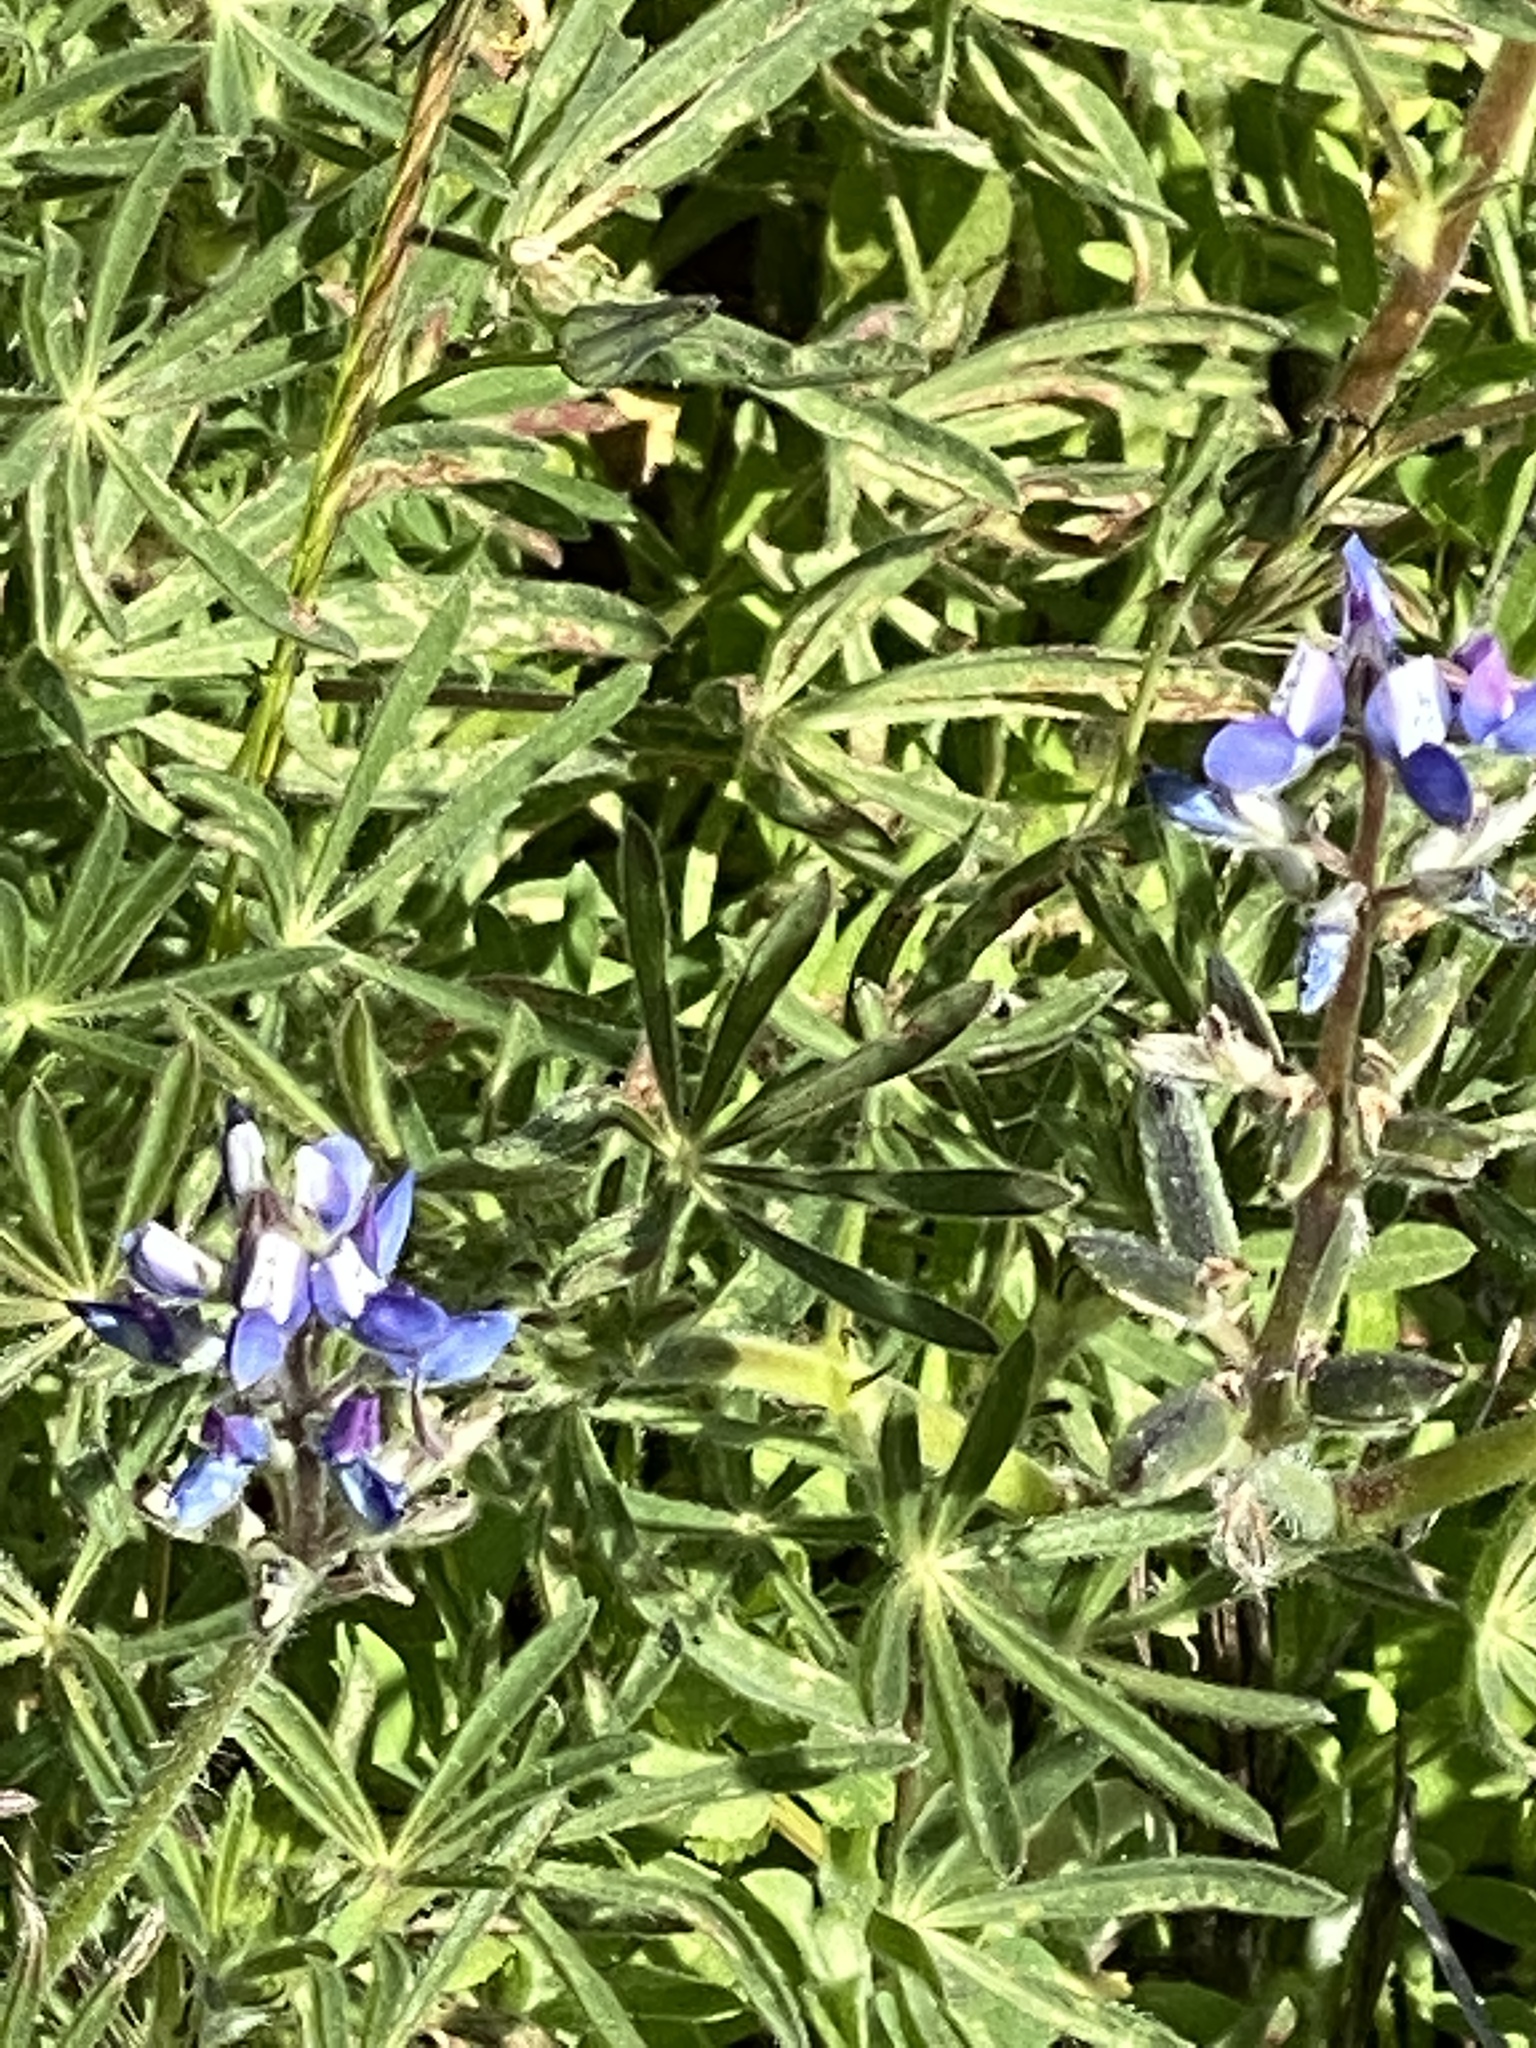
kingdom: Plantae
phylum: Tracheophyta
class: Magnoliopsida
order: Fabales
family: Fabaceae
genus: Lupinus
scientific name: Lupinus bicolor
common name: Miniature lupine
